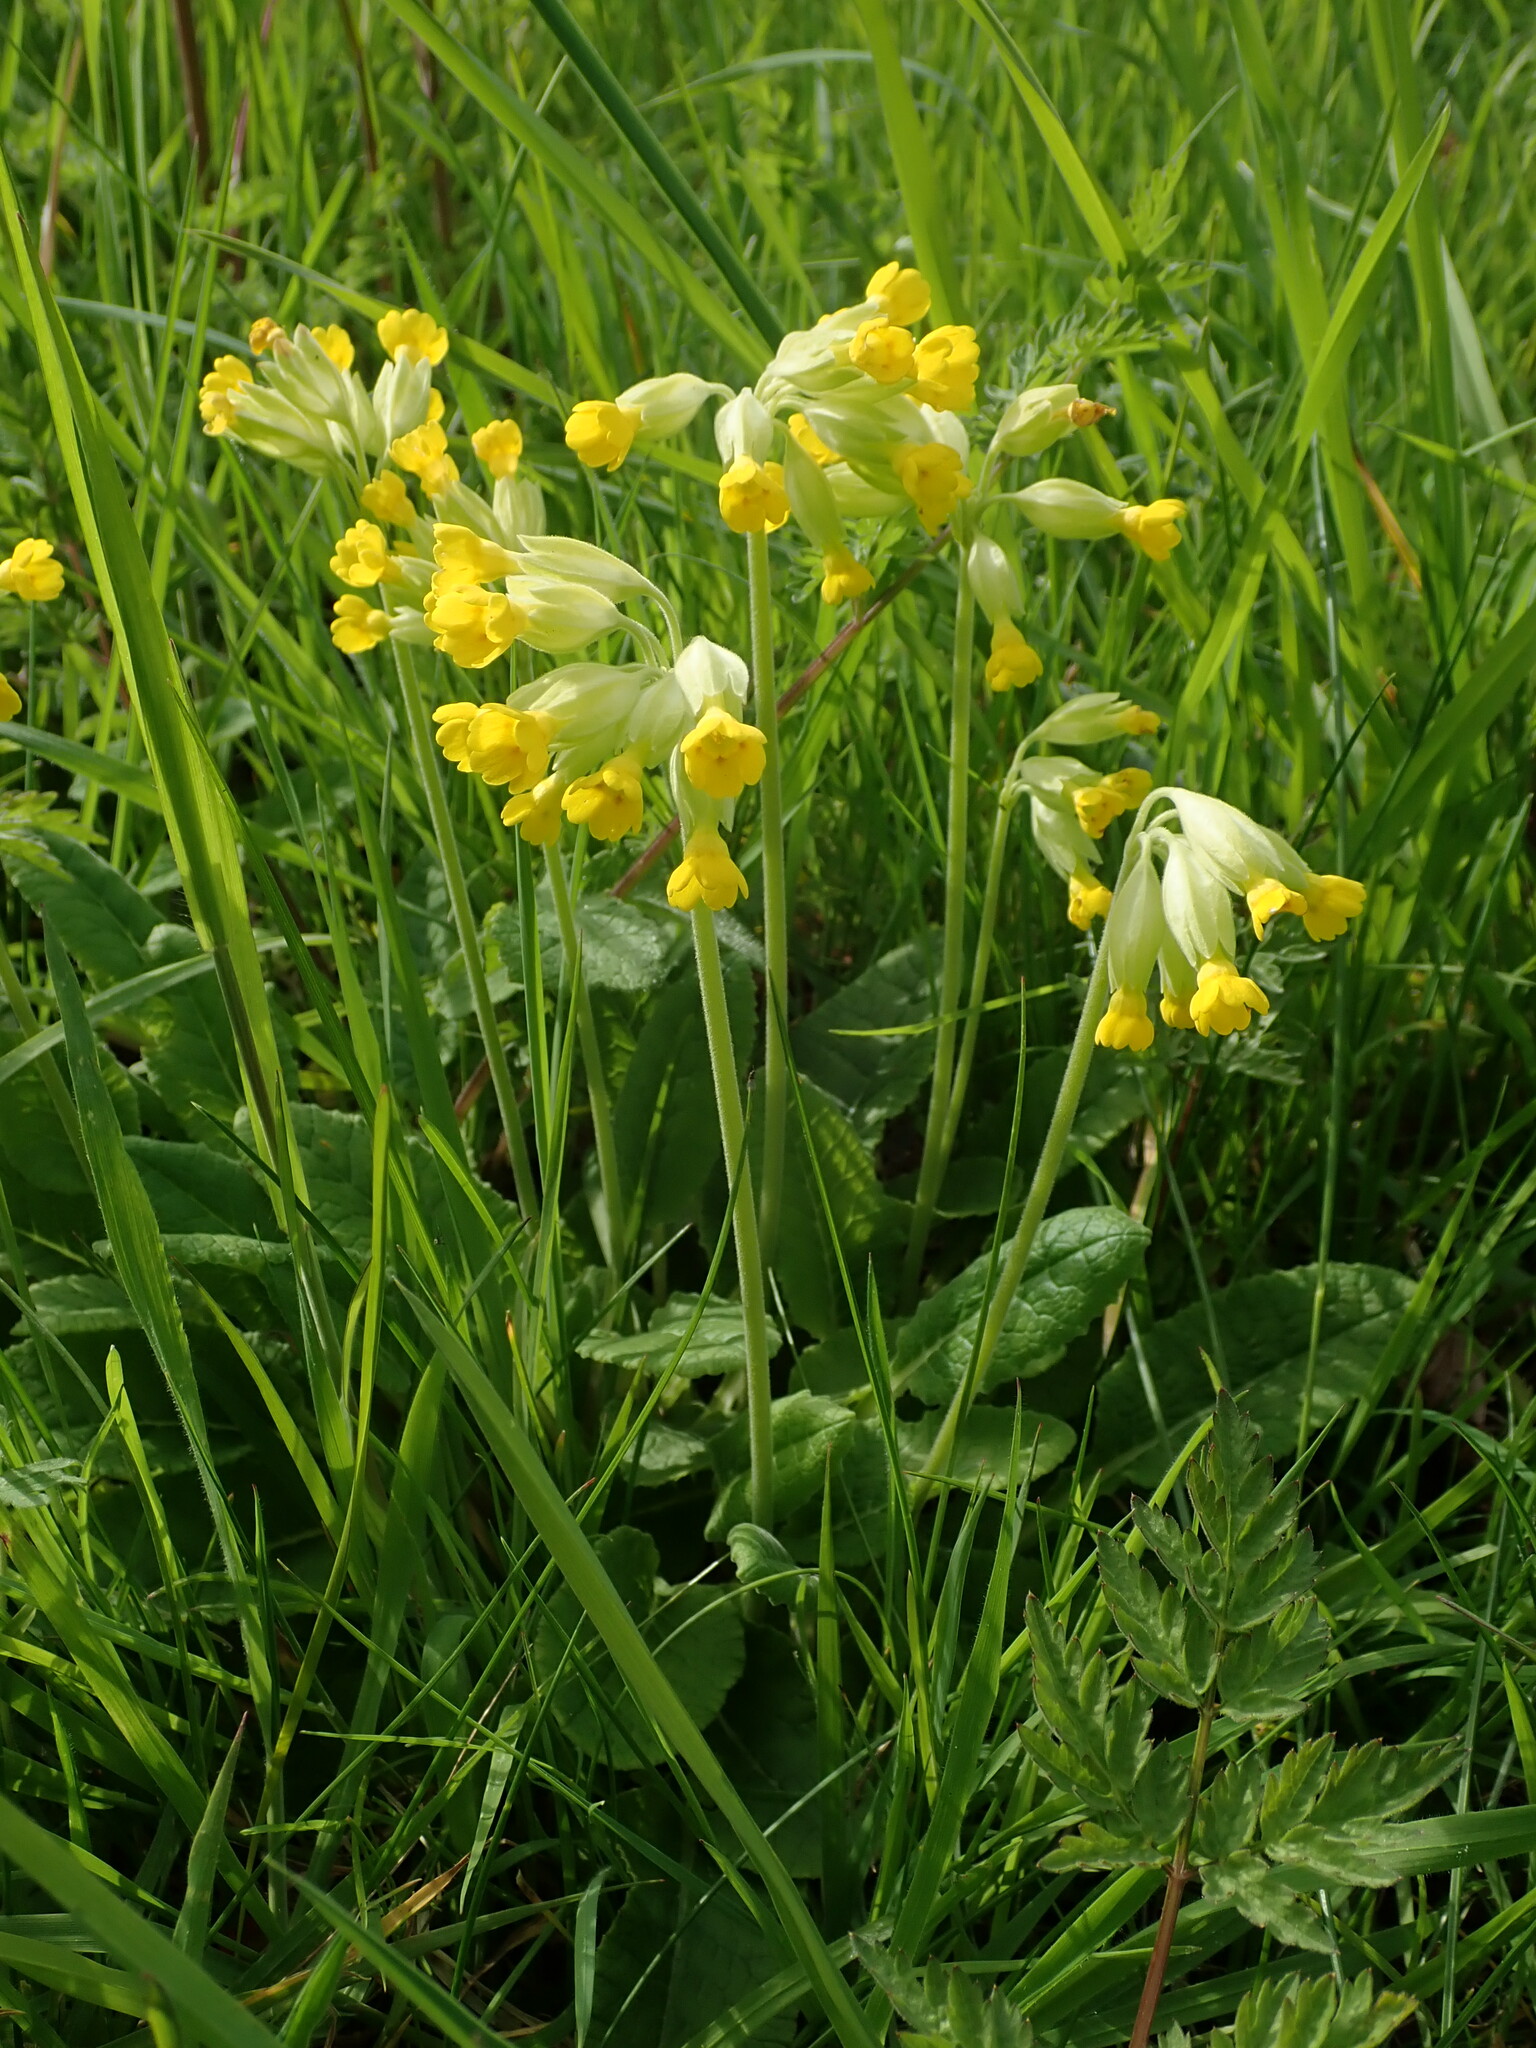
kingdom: Plantae
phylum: Tracheophyta
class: Magnoliopsida
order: Ericales
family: Primulaceae
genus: Primula
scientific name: Primula veris
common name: Cowslip
